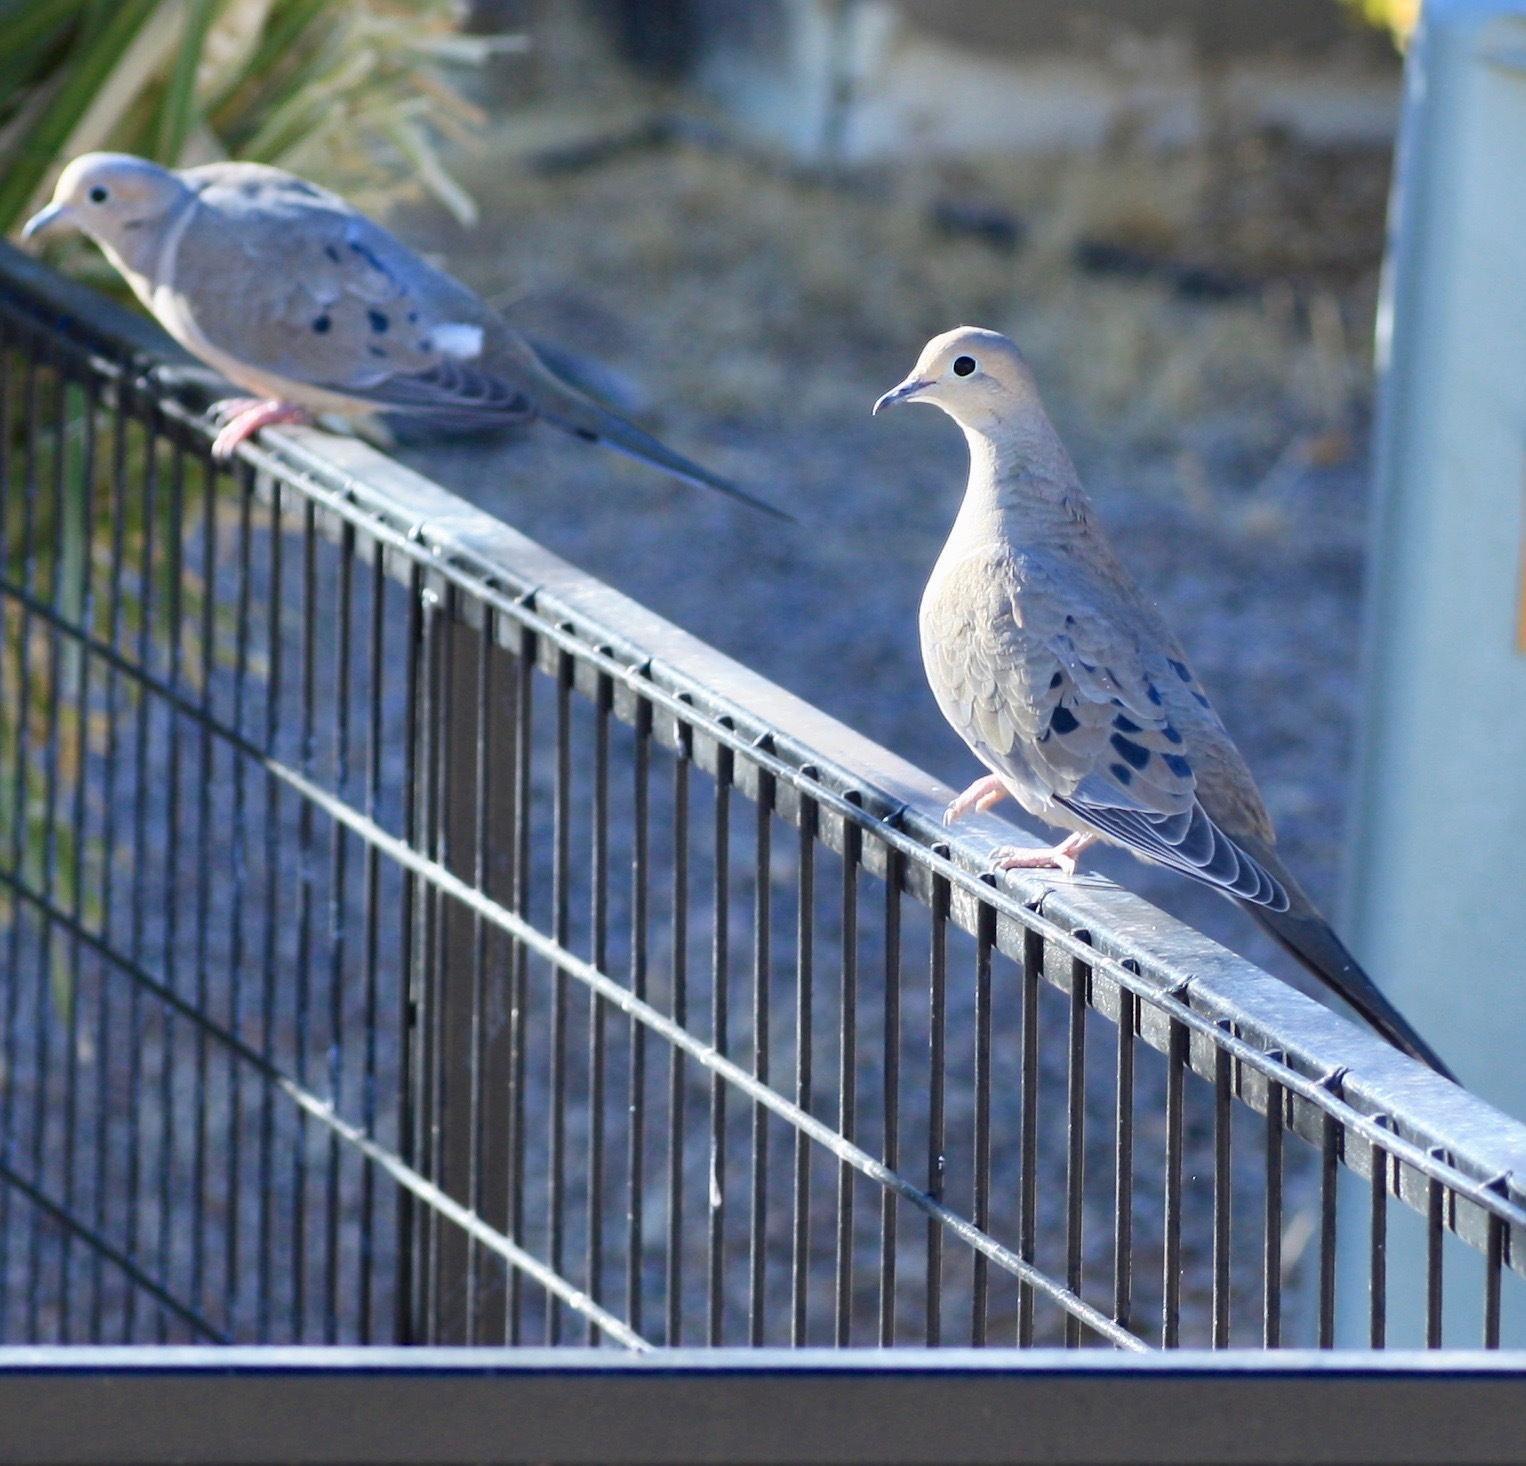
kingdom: Animalia
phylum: Chordata
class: Aves
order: Columbiformes
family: Columbidae
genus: Zenaida
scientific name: Zenaida macroura
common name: Mourning dove
